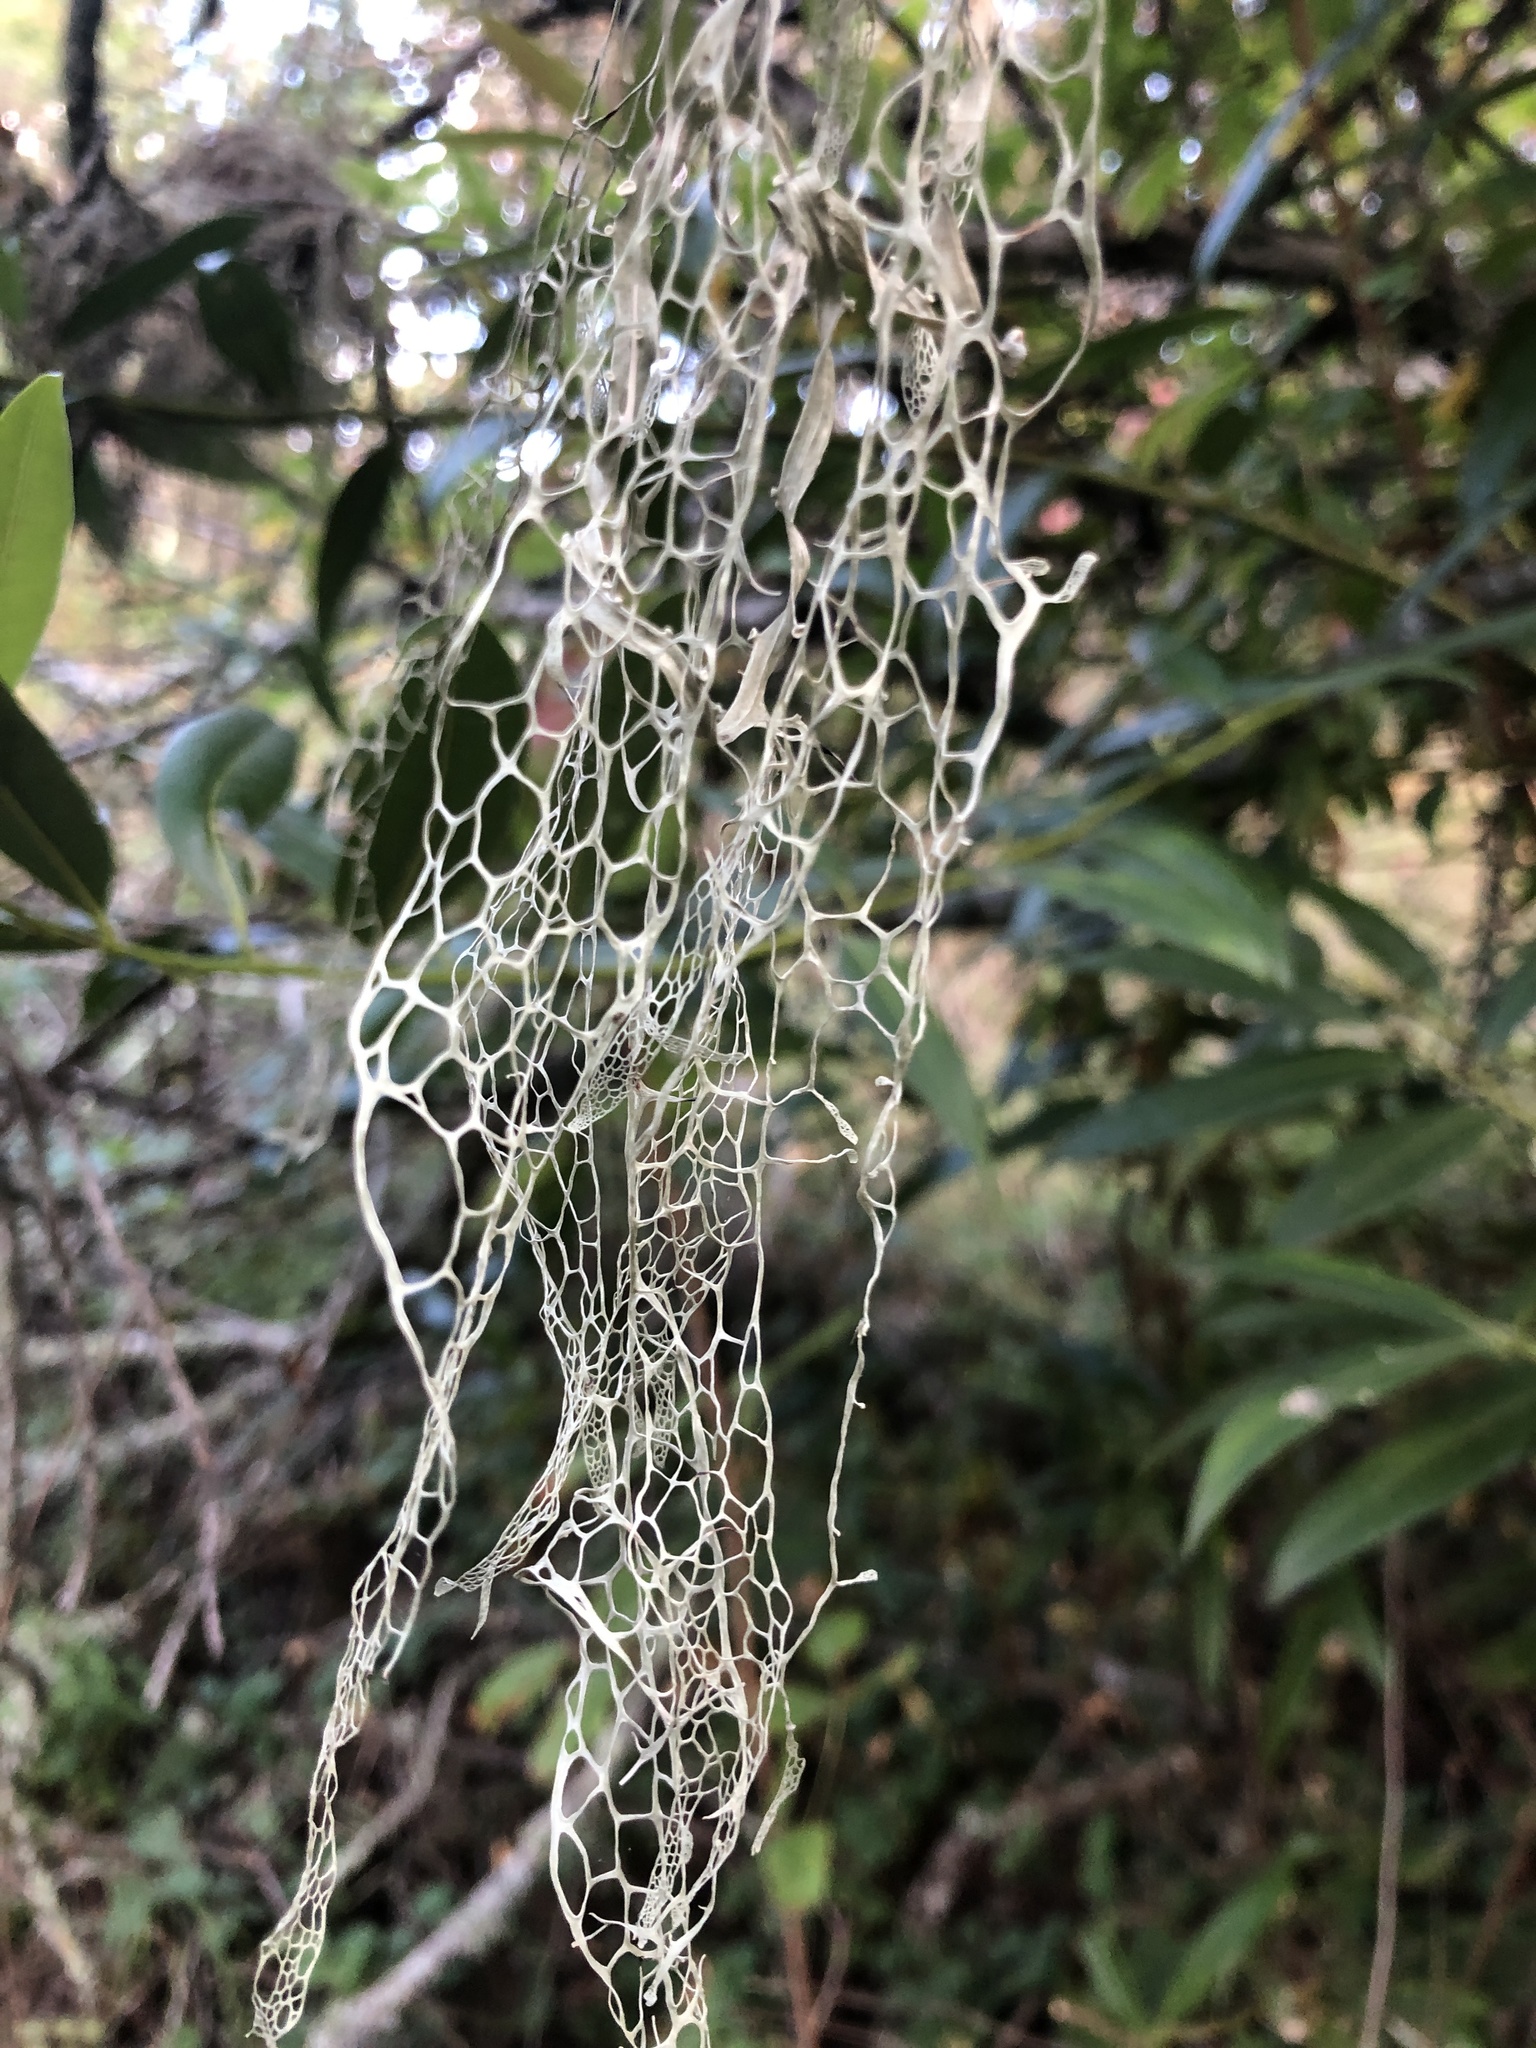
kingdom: Fungi
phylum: Ascomycota
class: Lecanoromycetes
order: Lecanorales
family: Ramalinaceae
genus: Ramalina
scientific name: Ramalina menziesii
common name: Lace lichen
